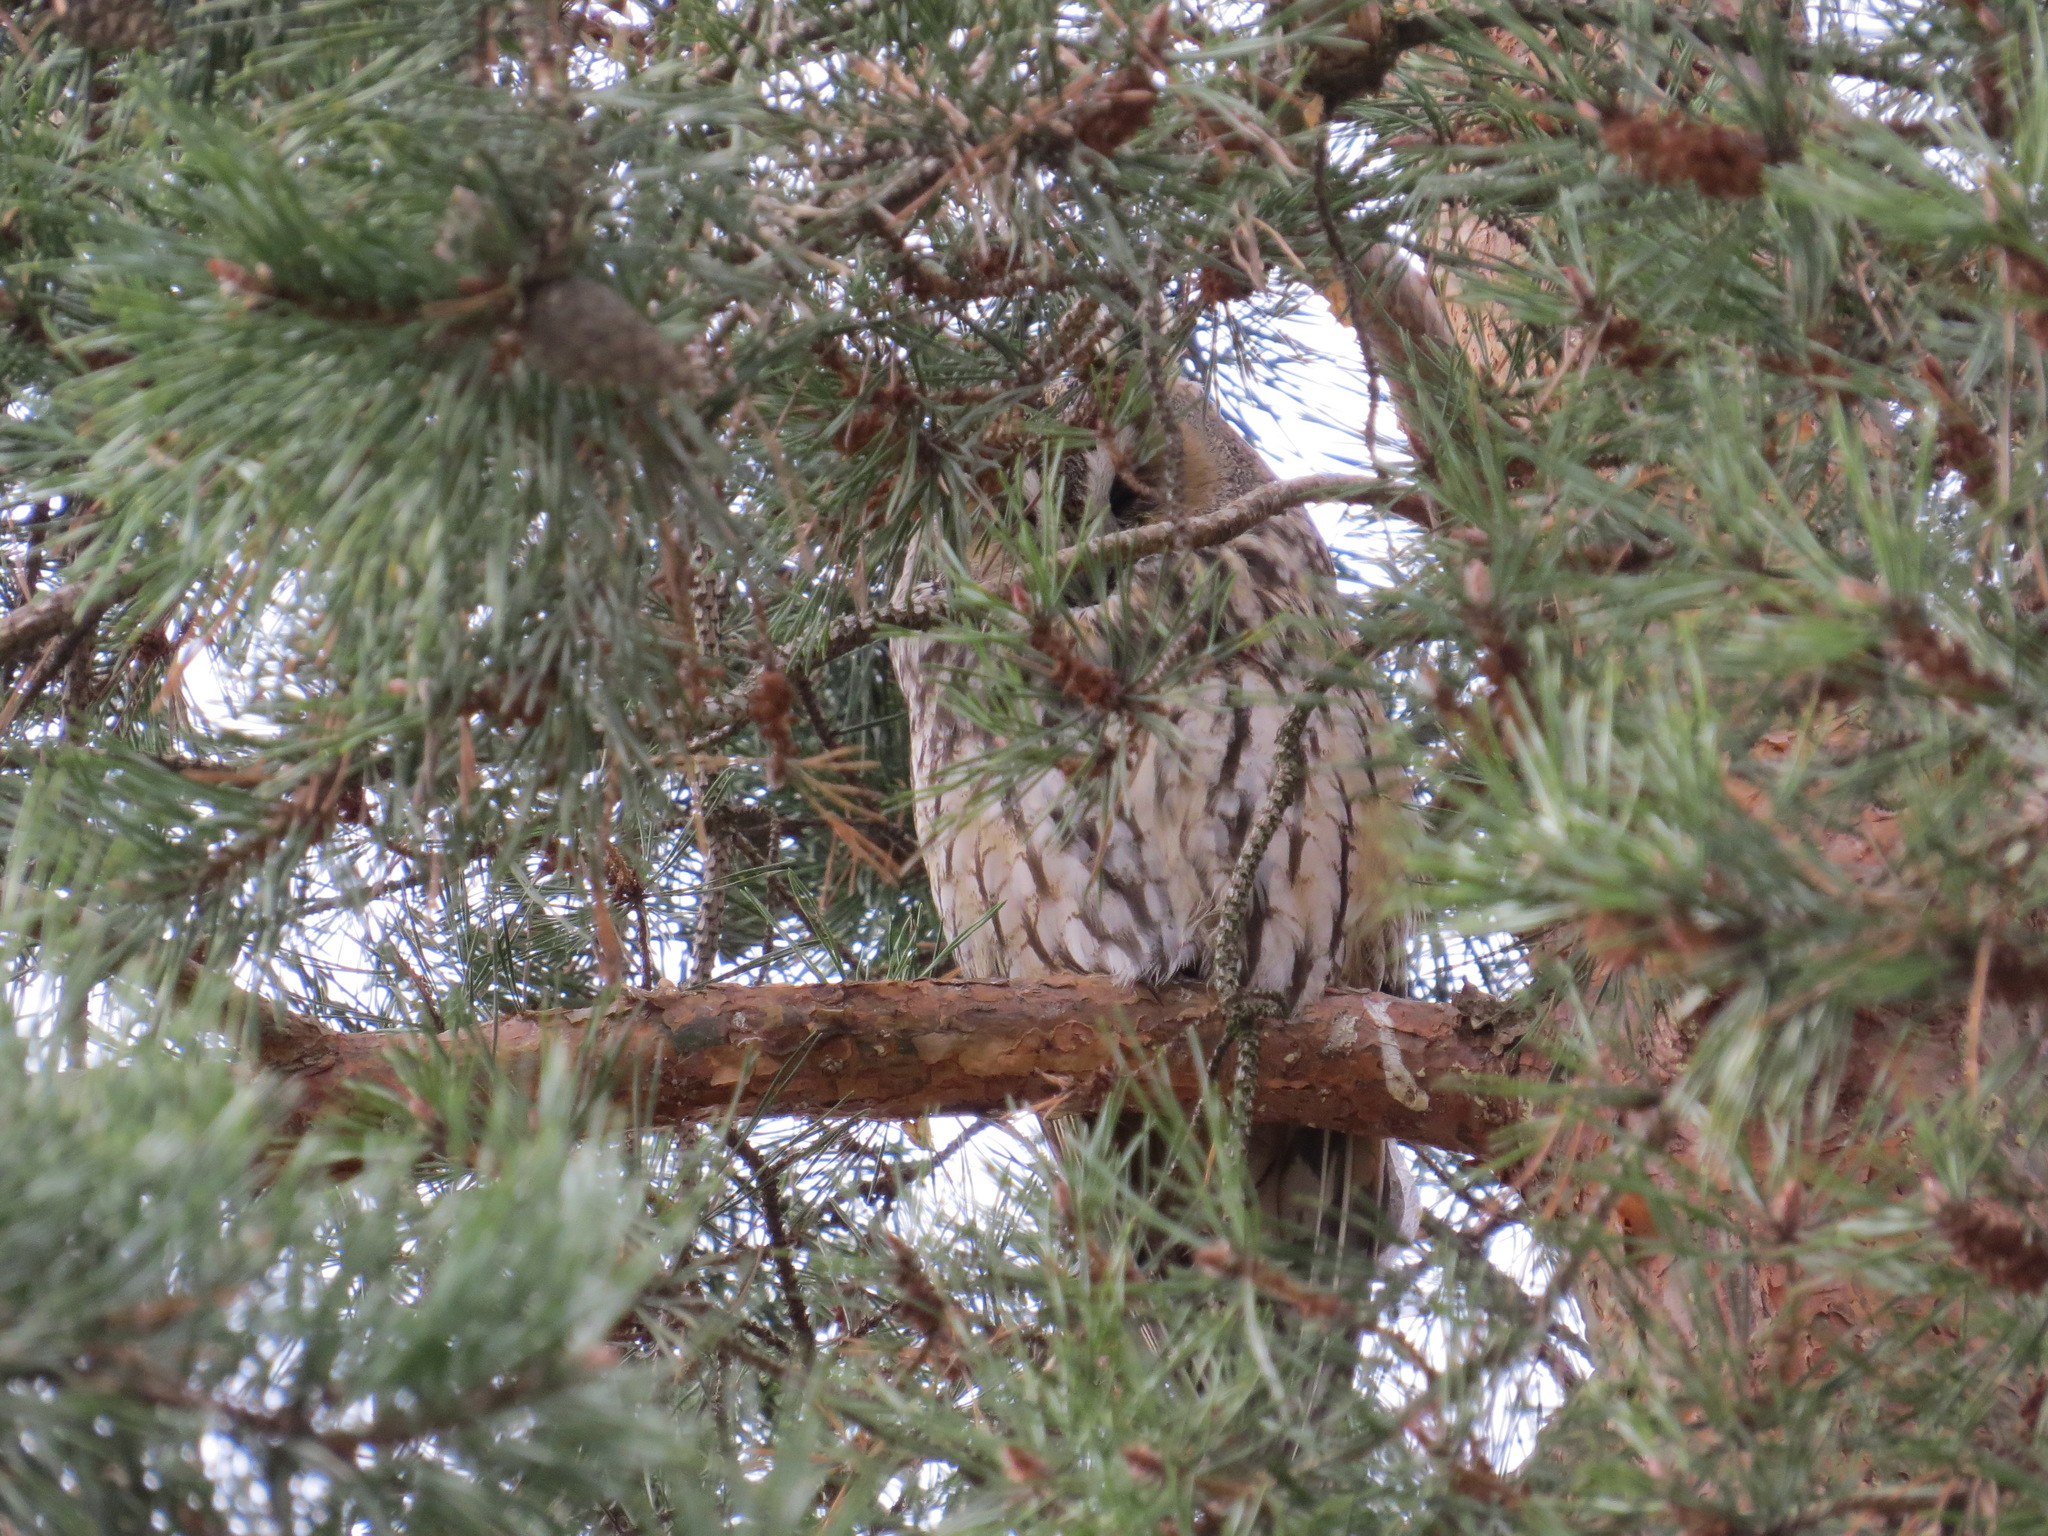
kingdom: Animalia
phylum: Chordata
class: Aves
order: Strigiformes
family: Strigidae
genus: Asio
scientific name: Asio otus
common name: Long-eared owl
